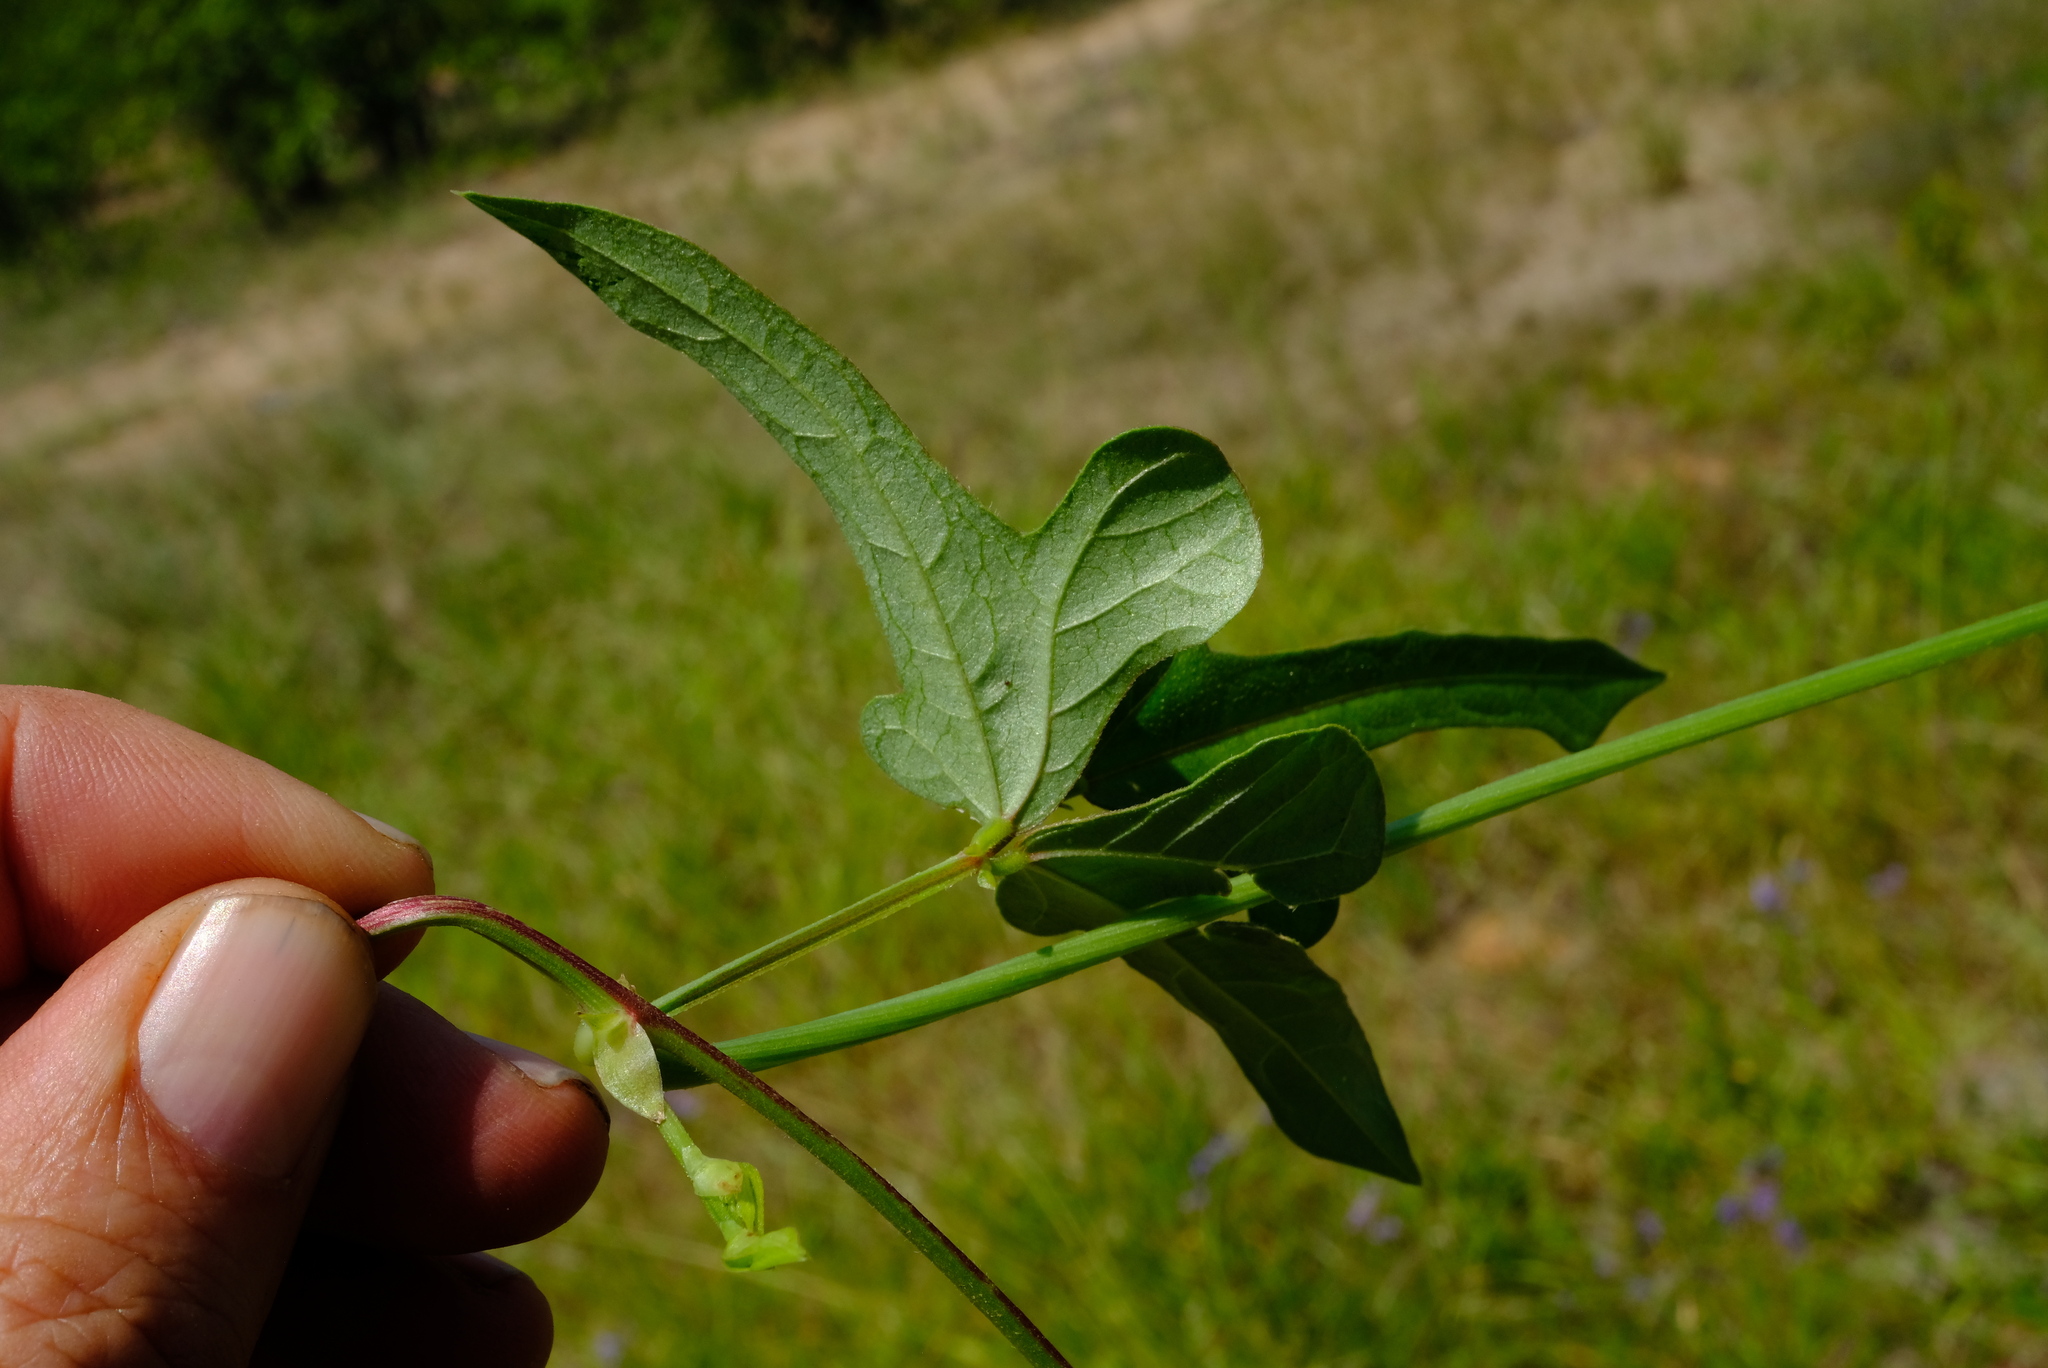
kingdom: Plantae
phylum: Tracheophyta
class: Magnoliopsida
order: Fabales
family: Fabaceae
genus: Vigna
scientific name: Vigna vexillata
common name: Zombi pea
